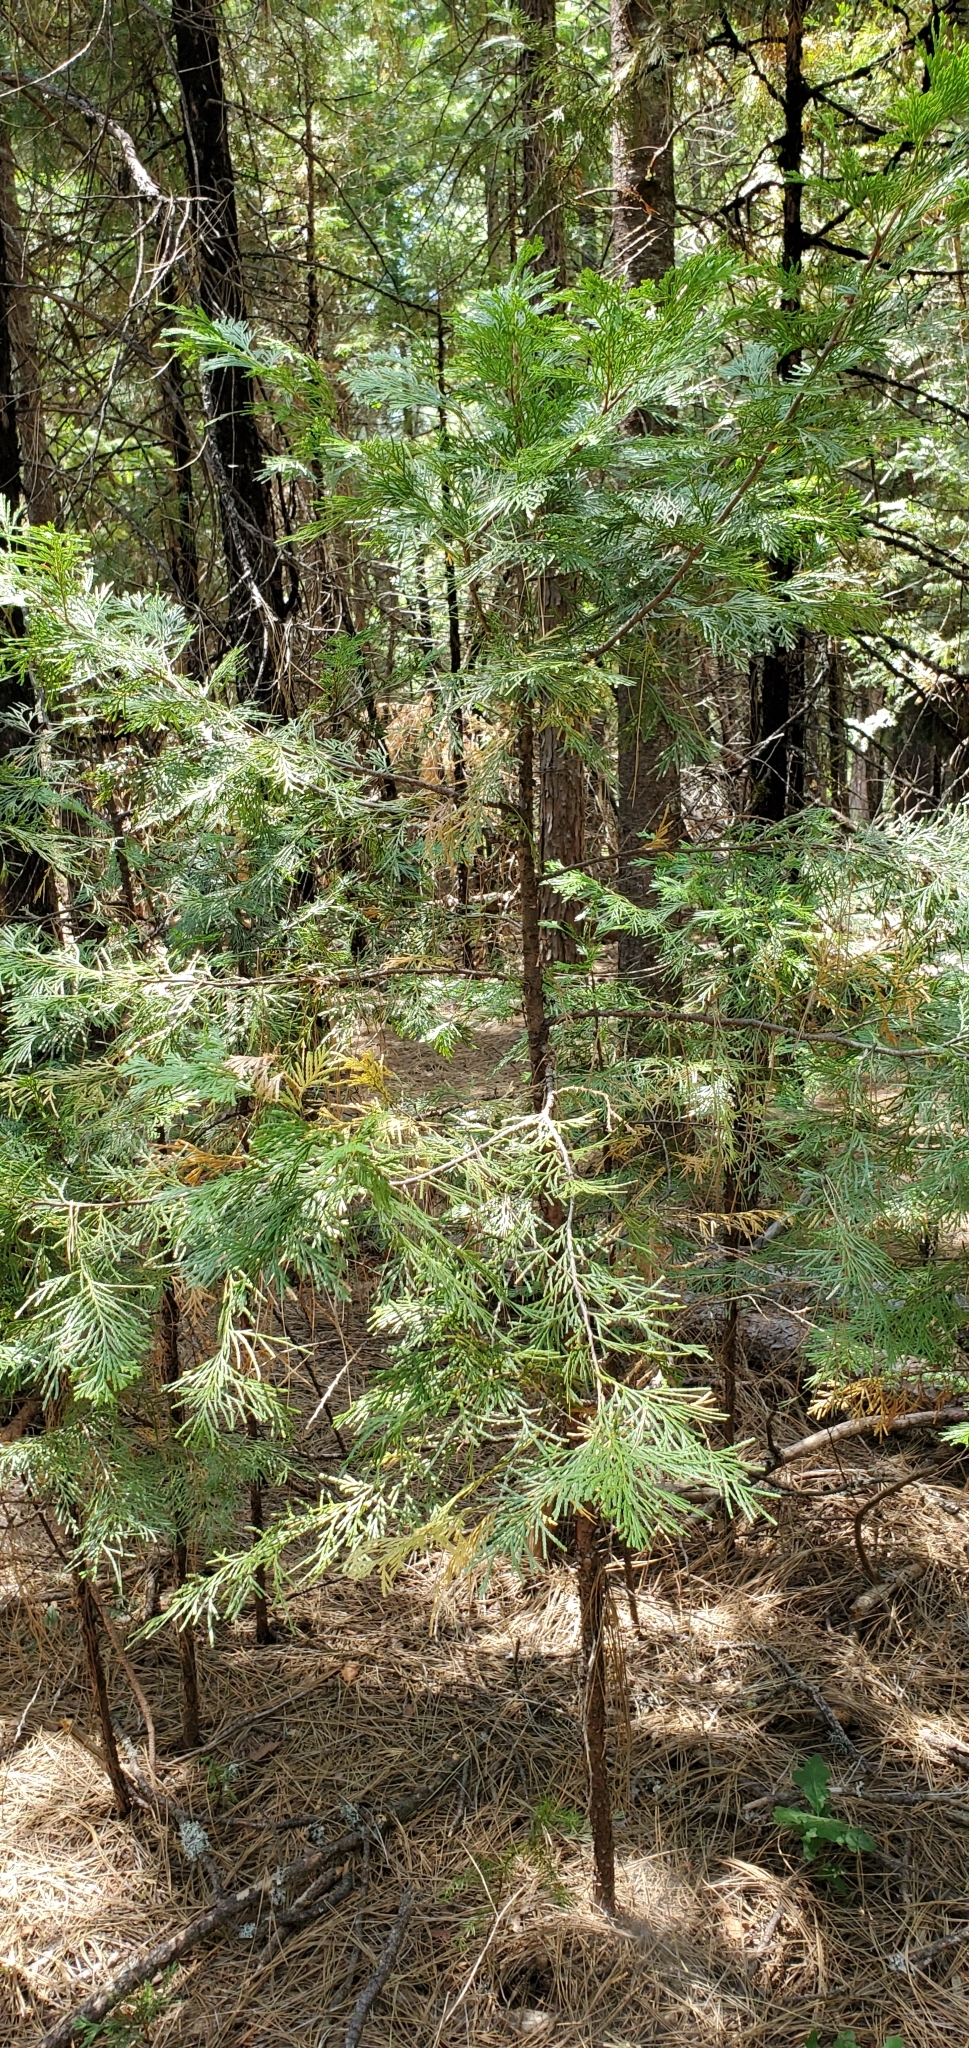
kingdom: Plantae
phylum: Tracheophyta
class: Pinopsida
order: Pinales
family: Cupressaceae
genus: Calocedrus
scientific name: Calocedrus decurrens
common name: Californian incense-cedar
